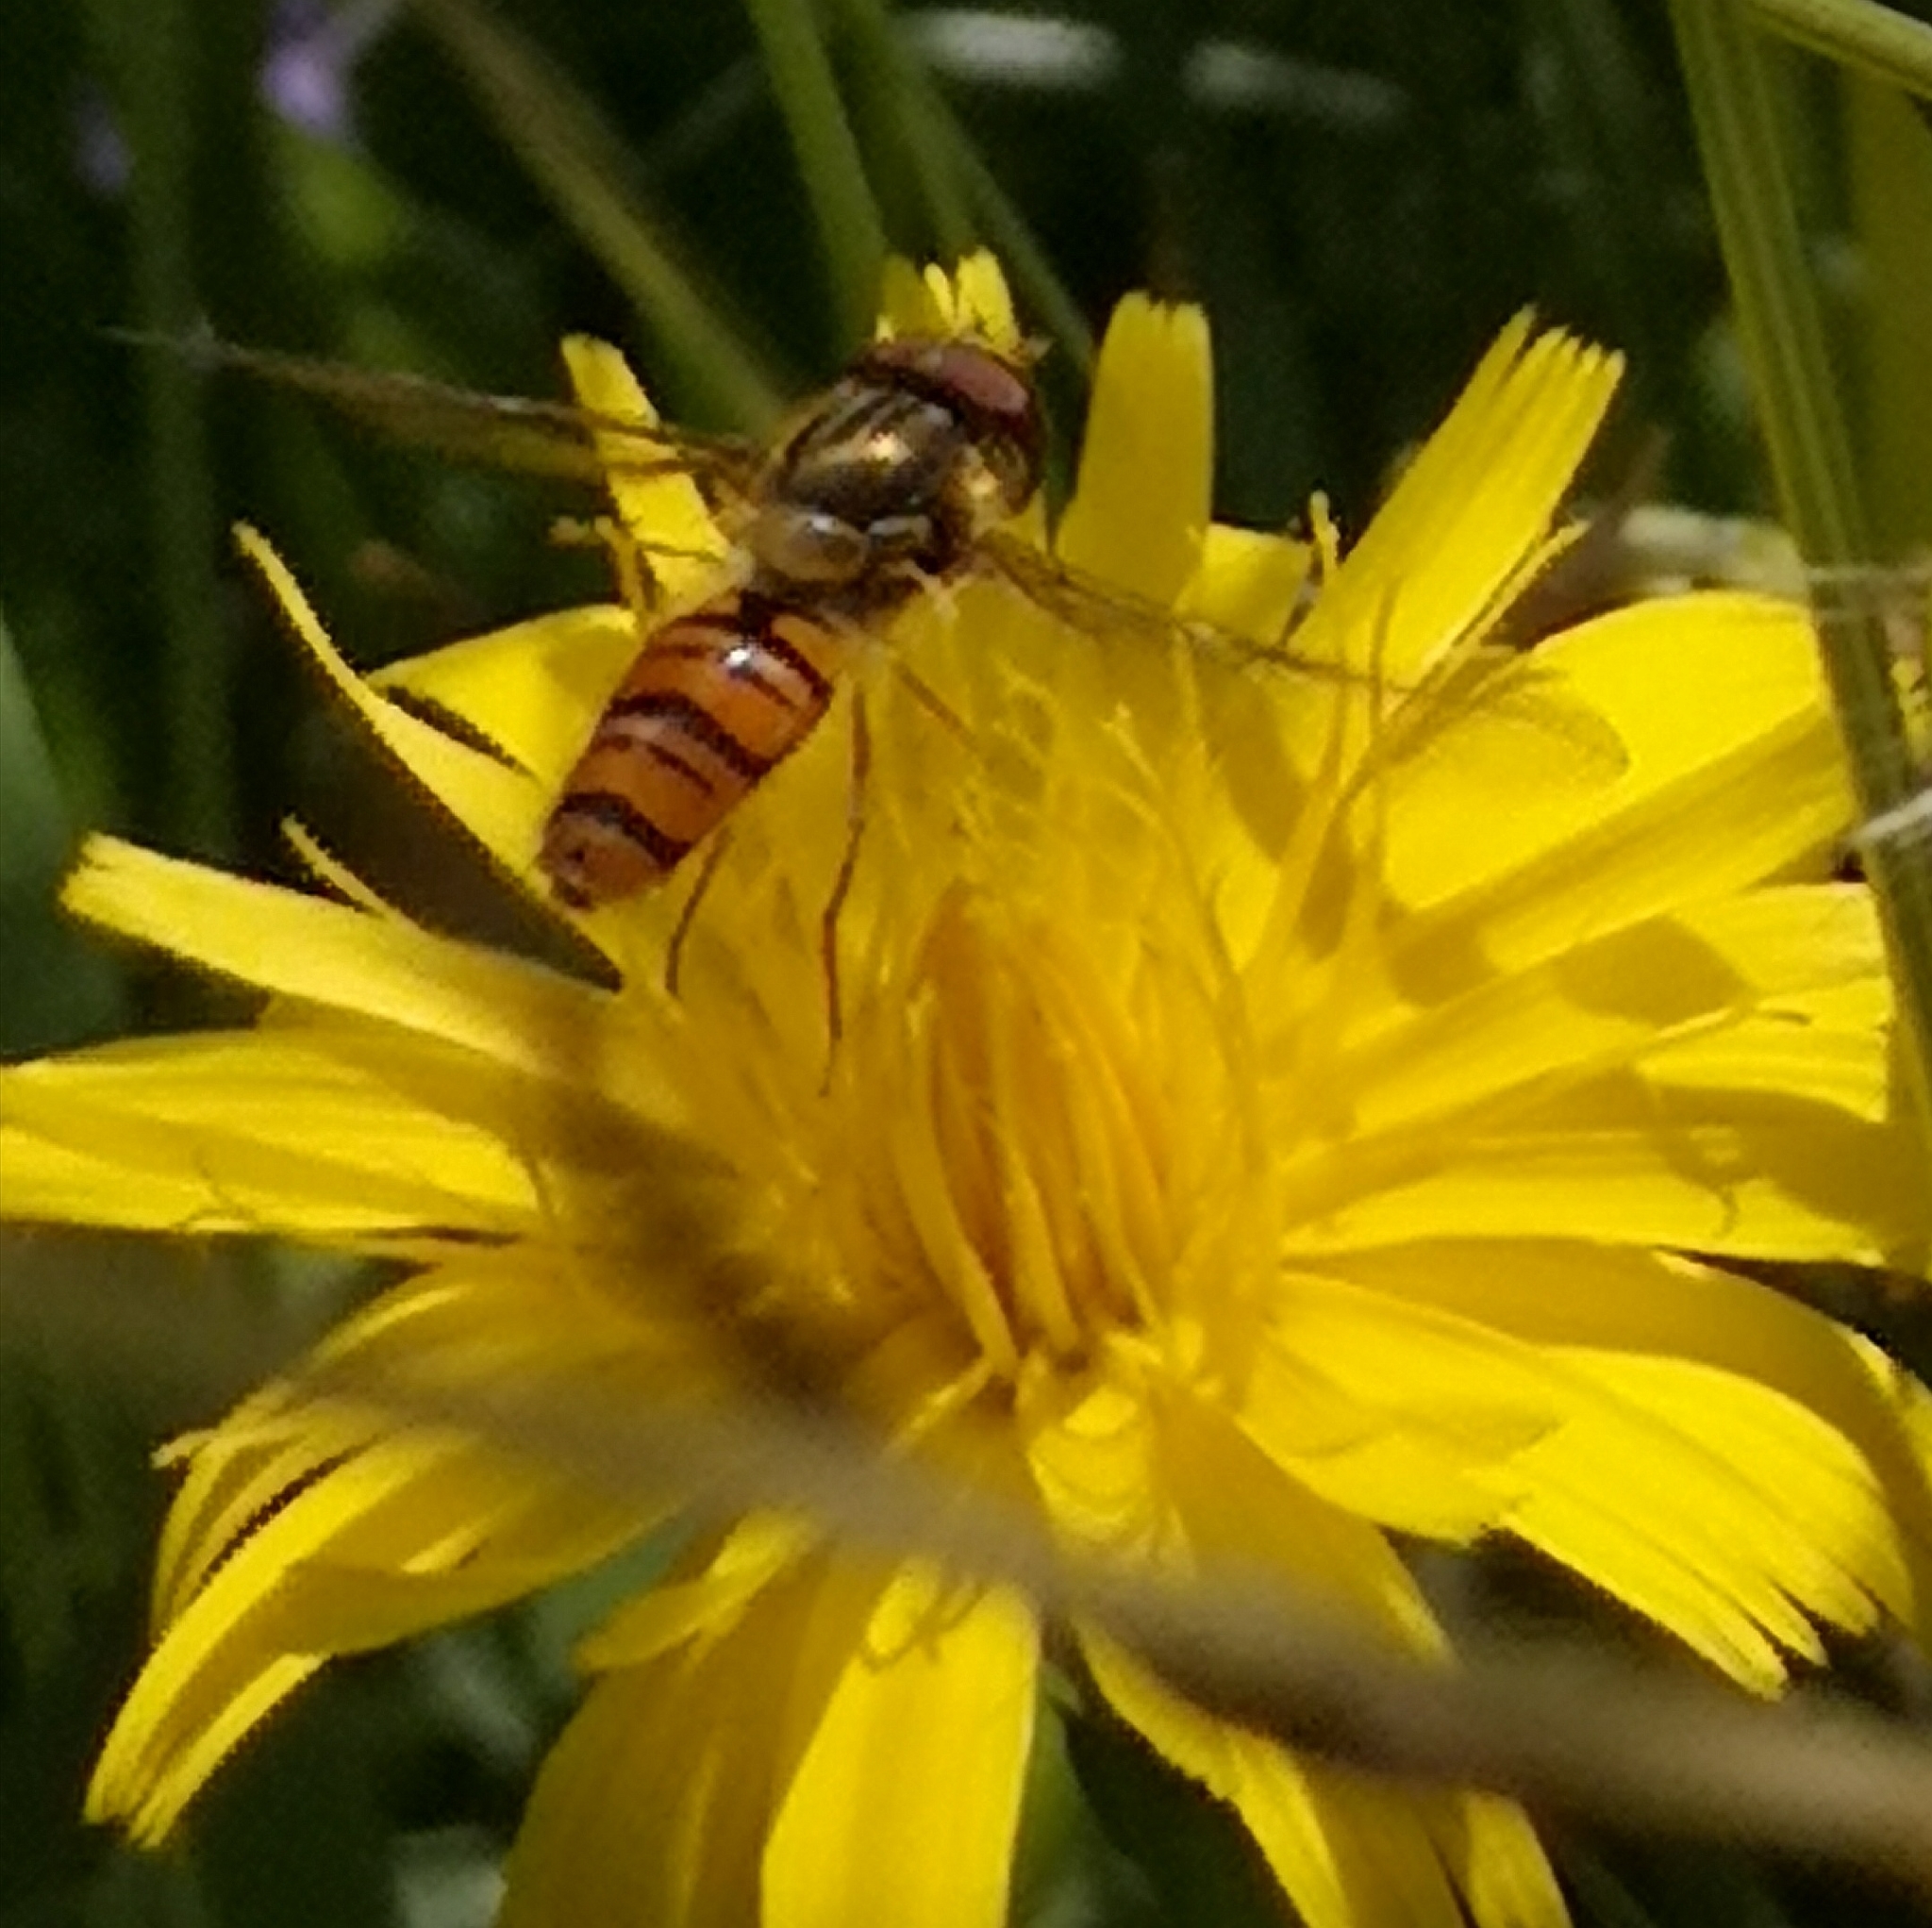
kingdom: Animalia
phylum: Arthropoda
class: Insecta
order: Diptera
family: Syrphidae
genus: Episyrphus
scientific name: Episyrphus balteatus
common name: Marmalade hoverfly
